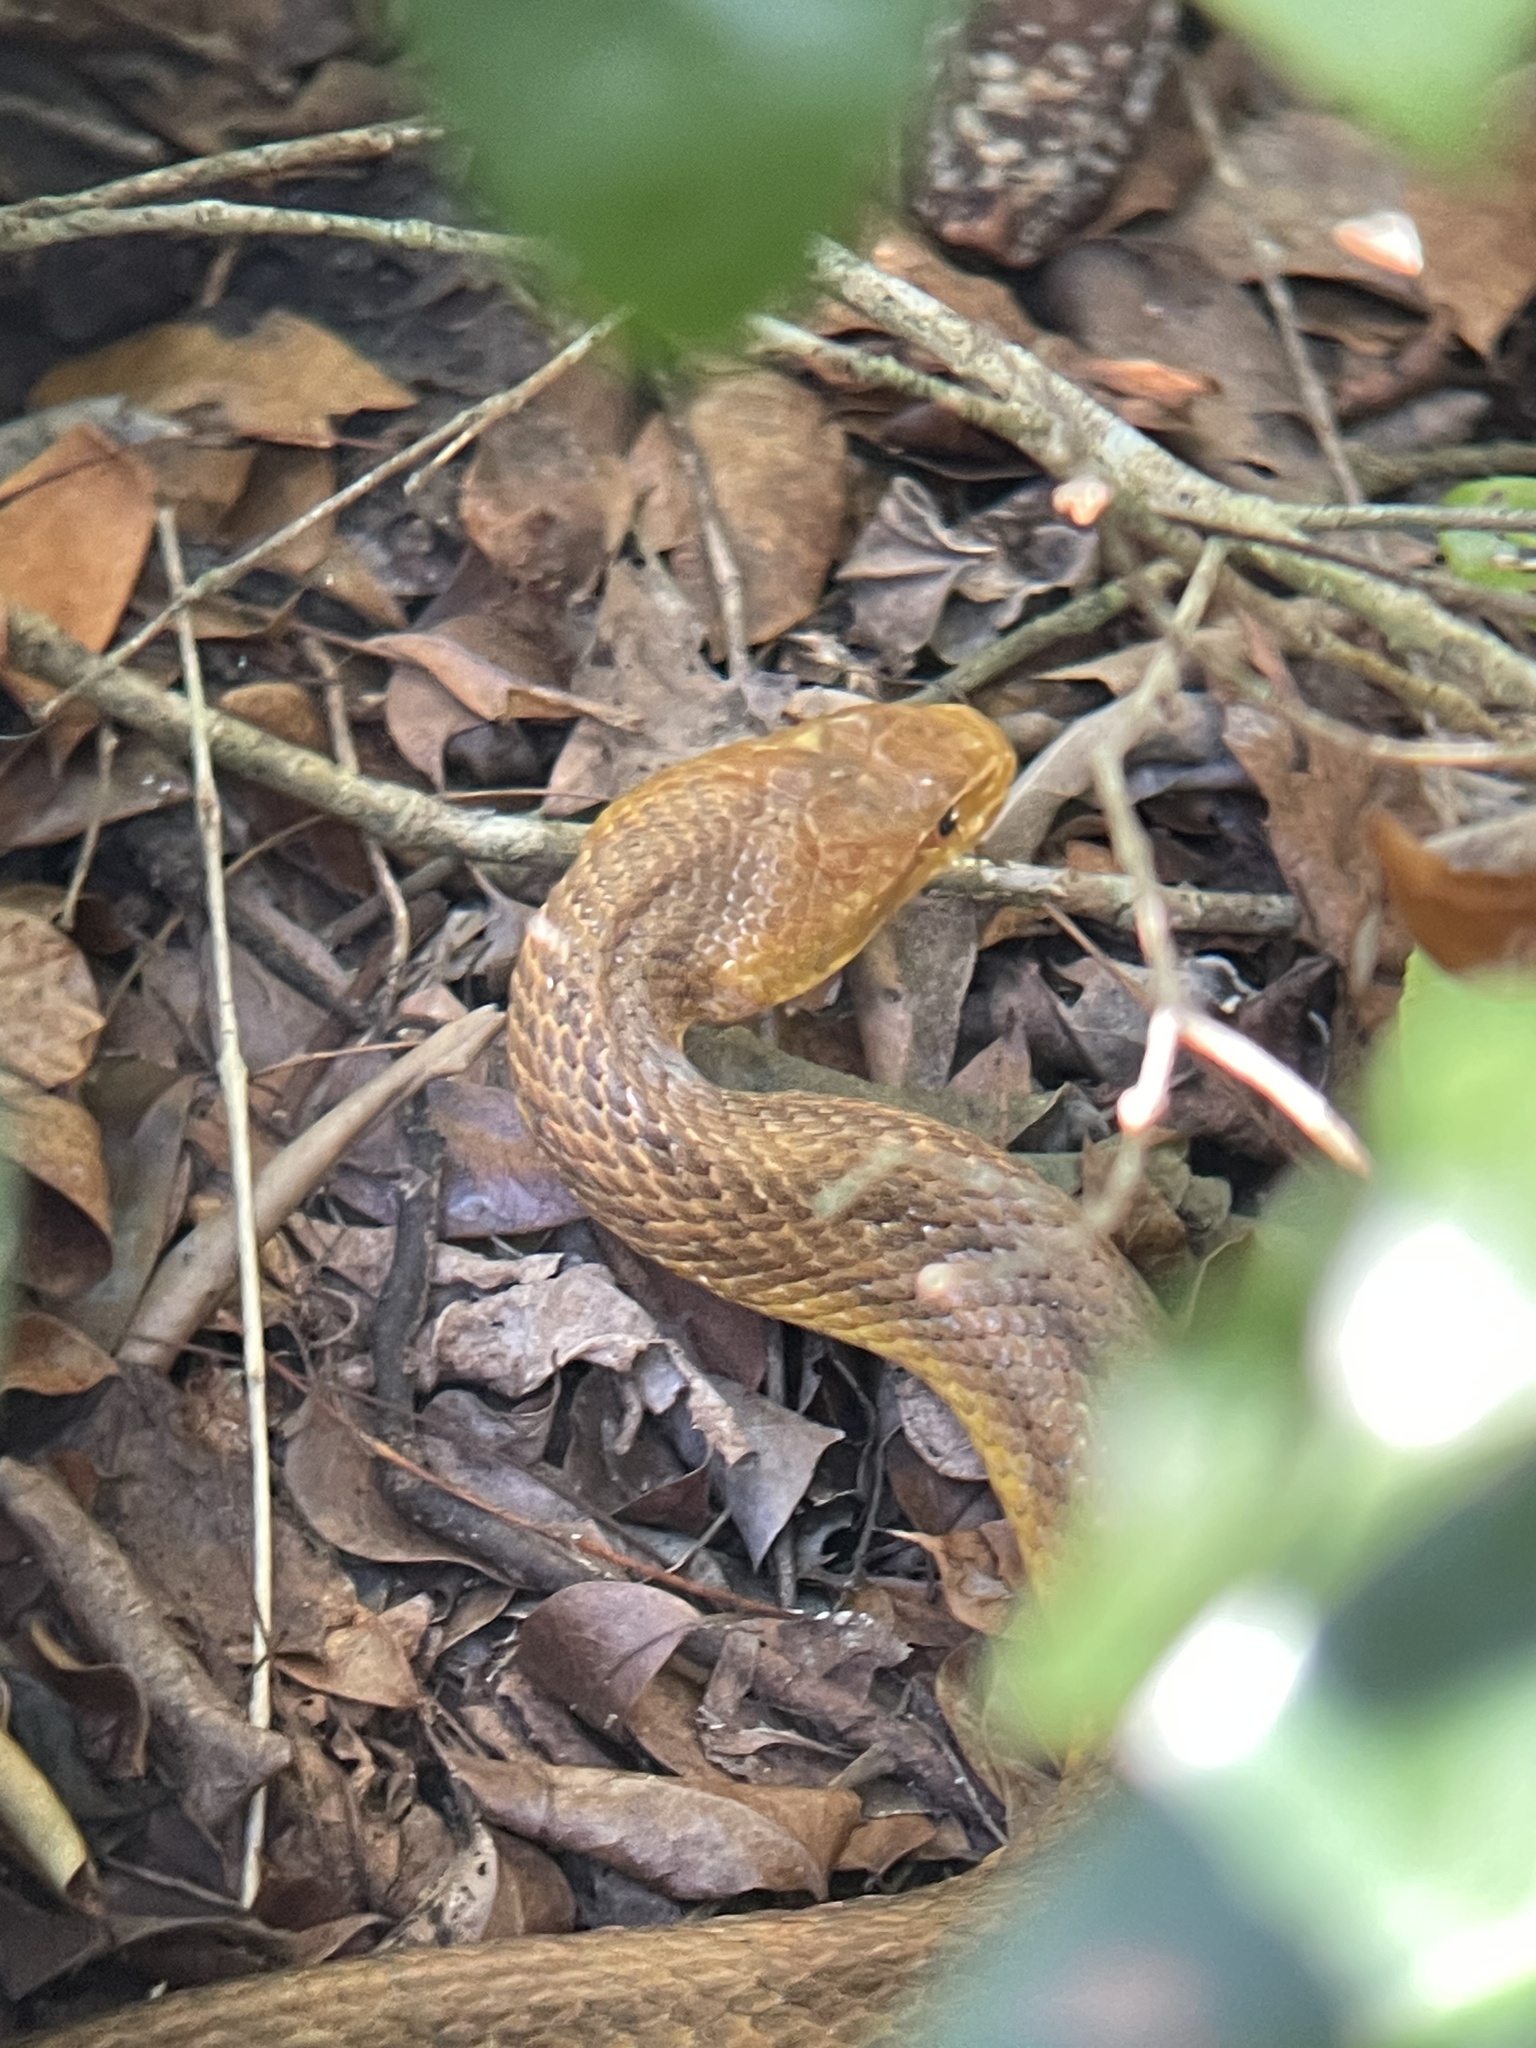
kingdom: Animalia
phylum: Chordata
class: Squamata
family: Colubridae
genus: Pantherophis
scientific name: Pantherophis alleghaniensis
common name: Eastern rat snake
